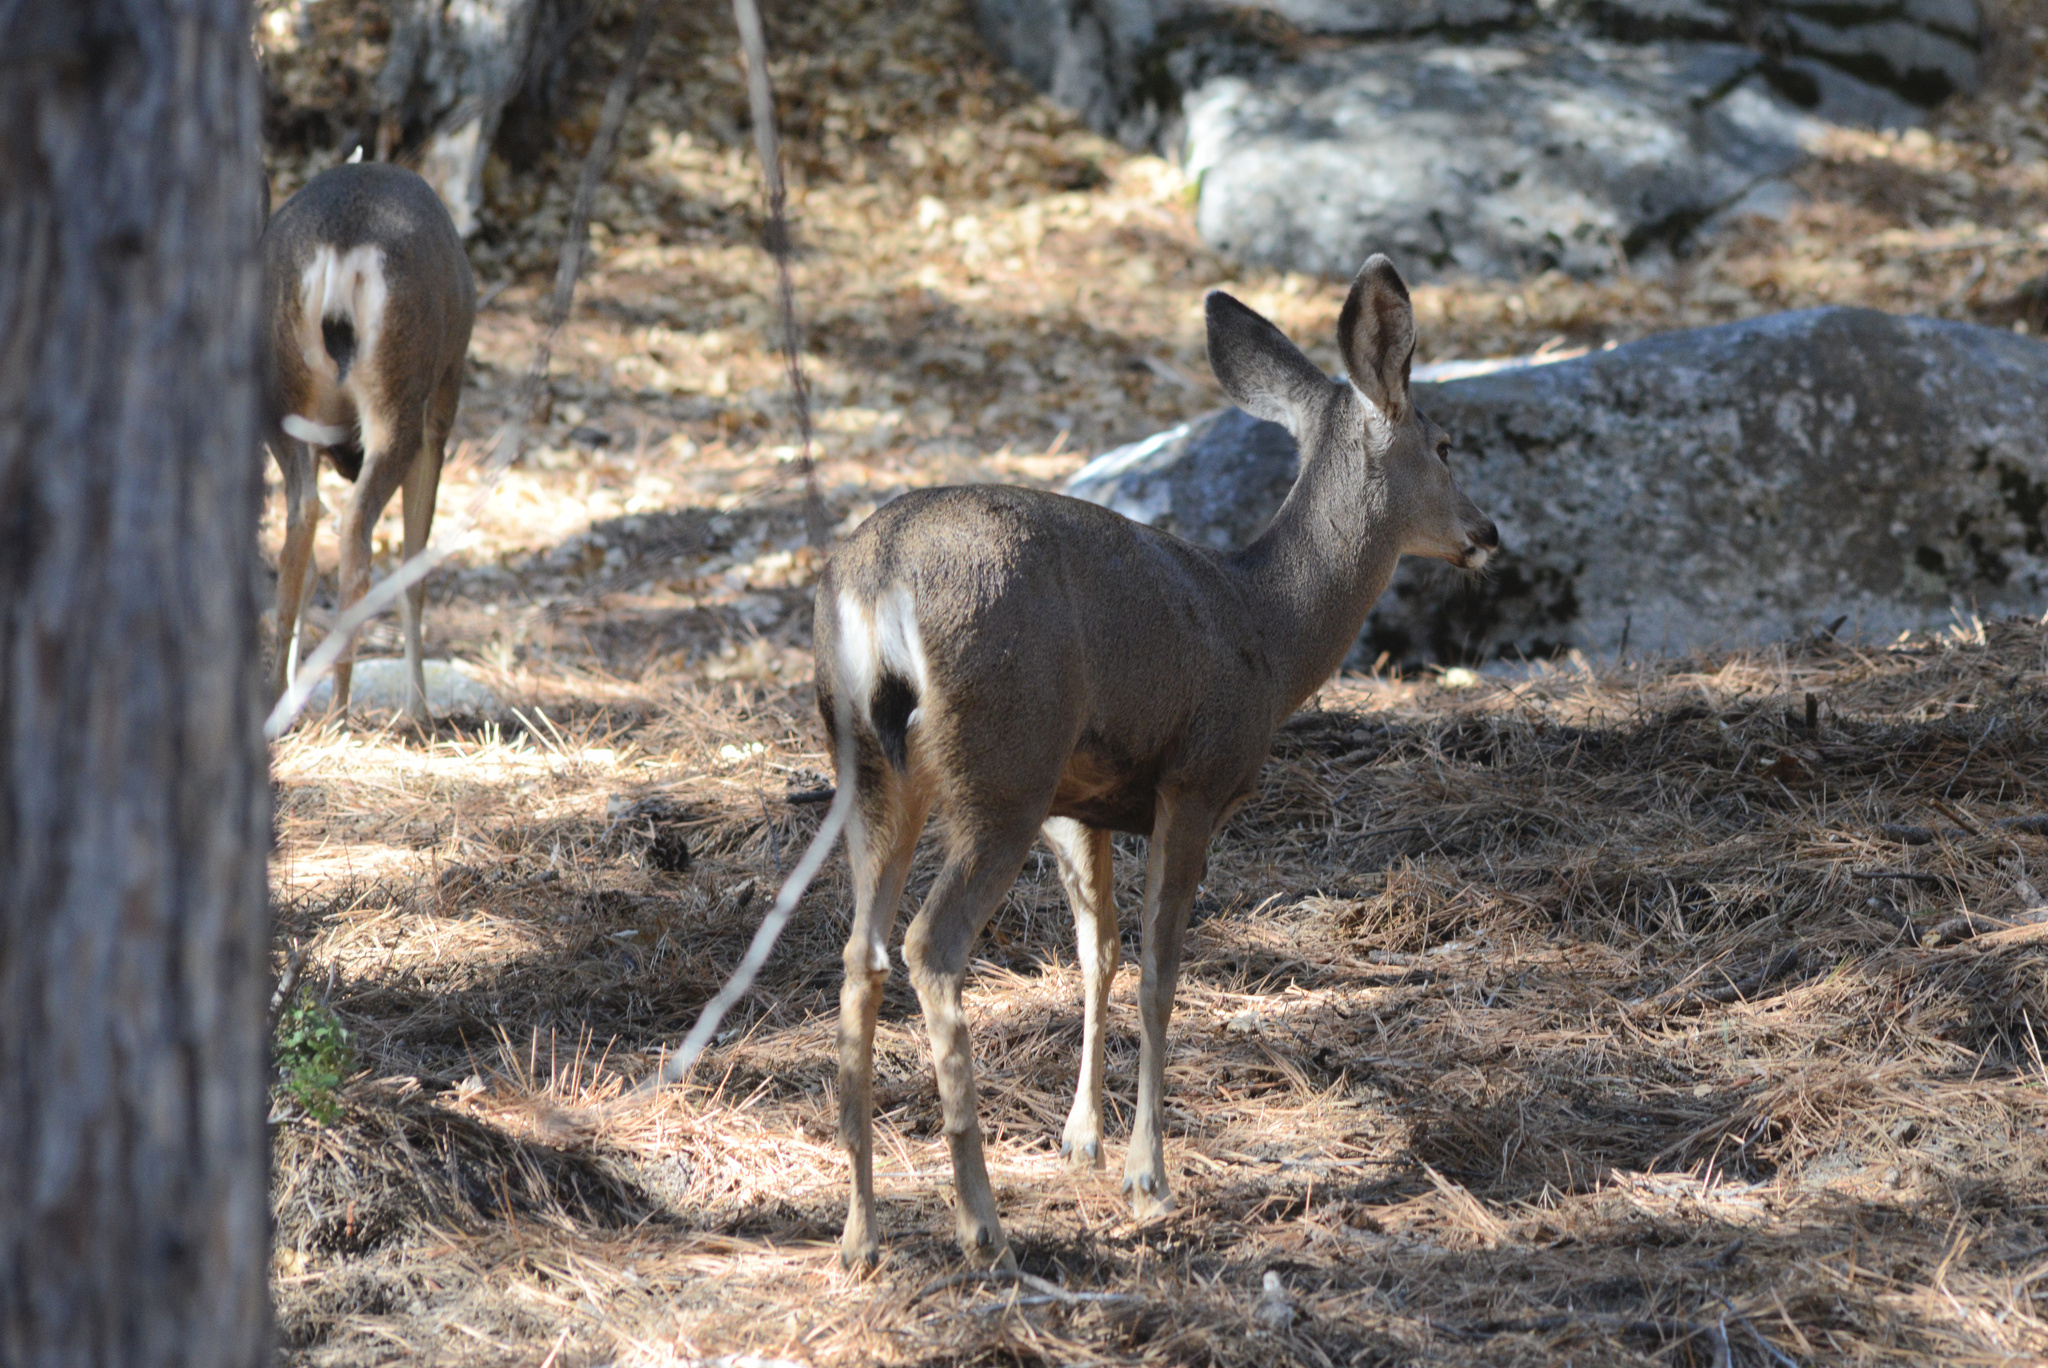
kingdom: Animalia
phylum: Chordata
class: Mammalia
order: Artiodactyla
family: Cervidae
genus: Odocoileus
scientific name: Odocoileus hemionus
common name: Mule deer
